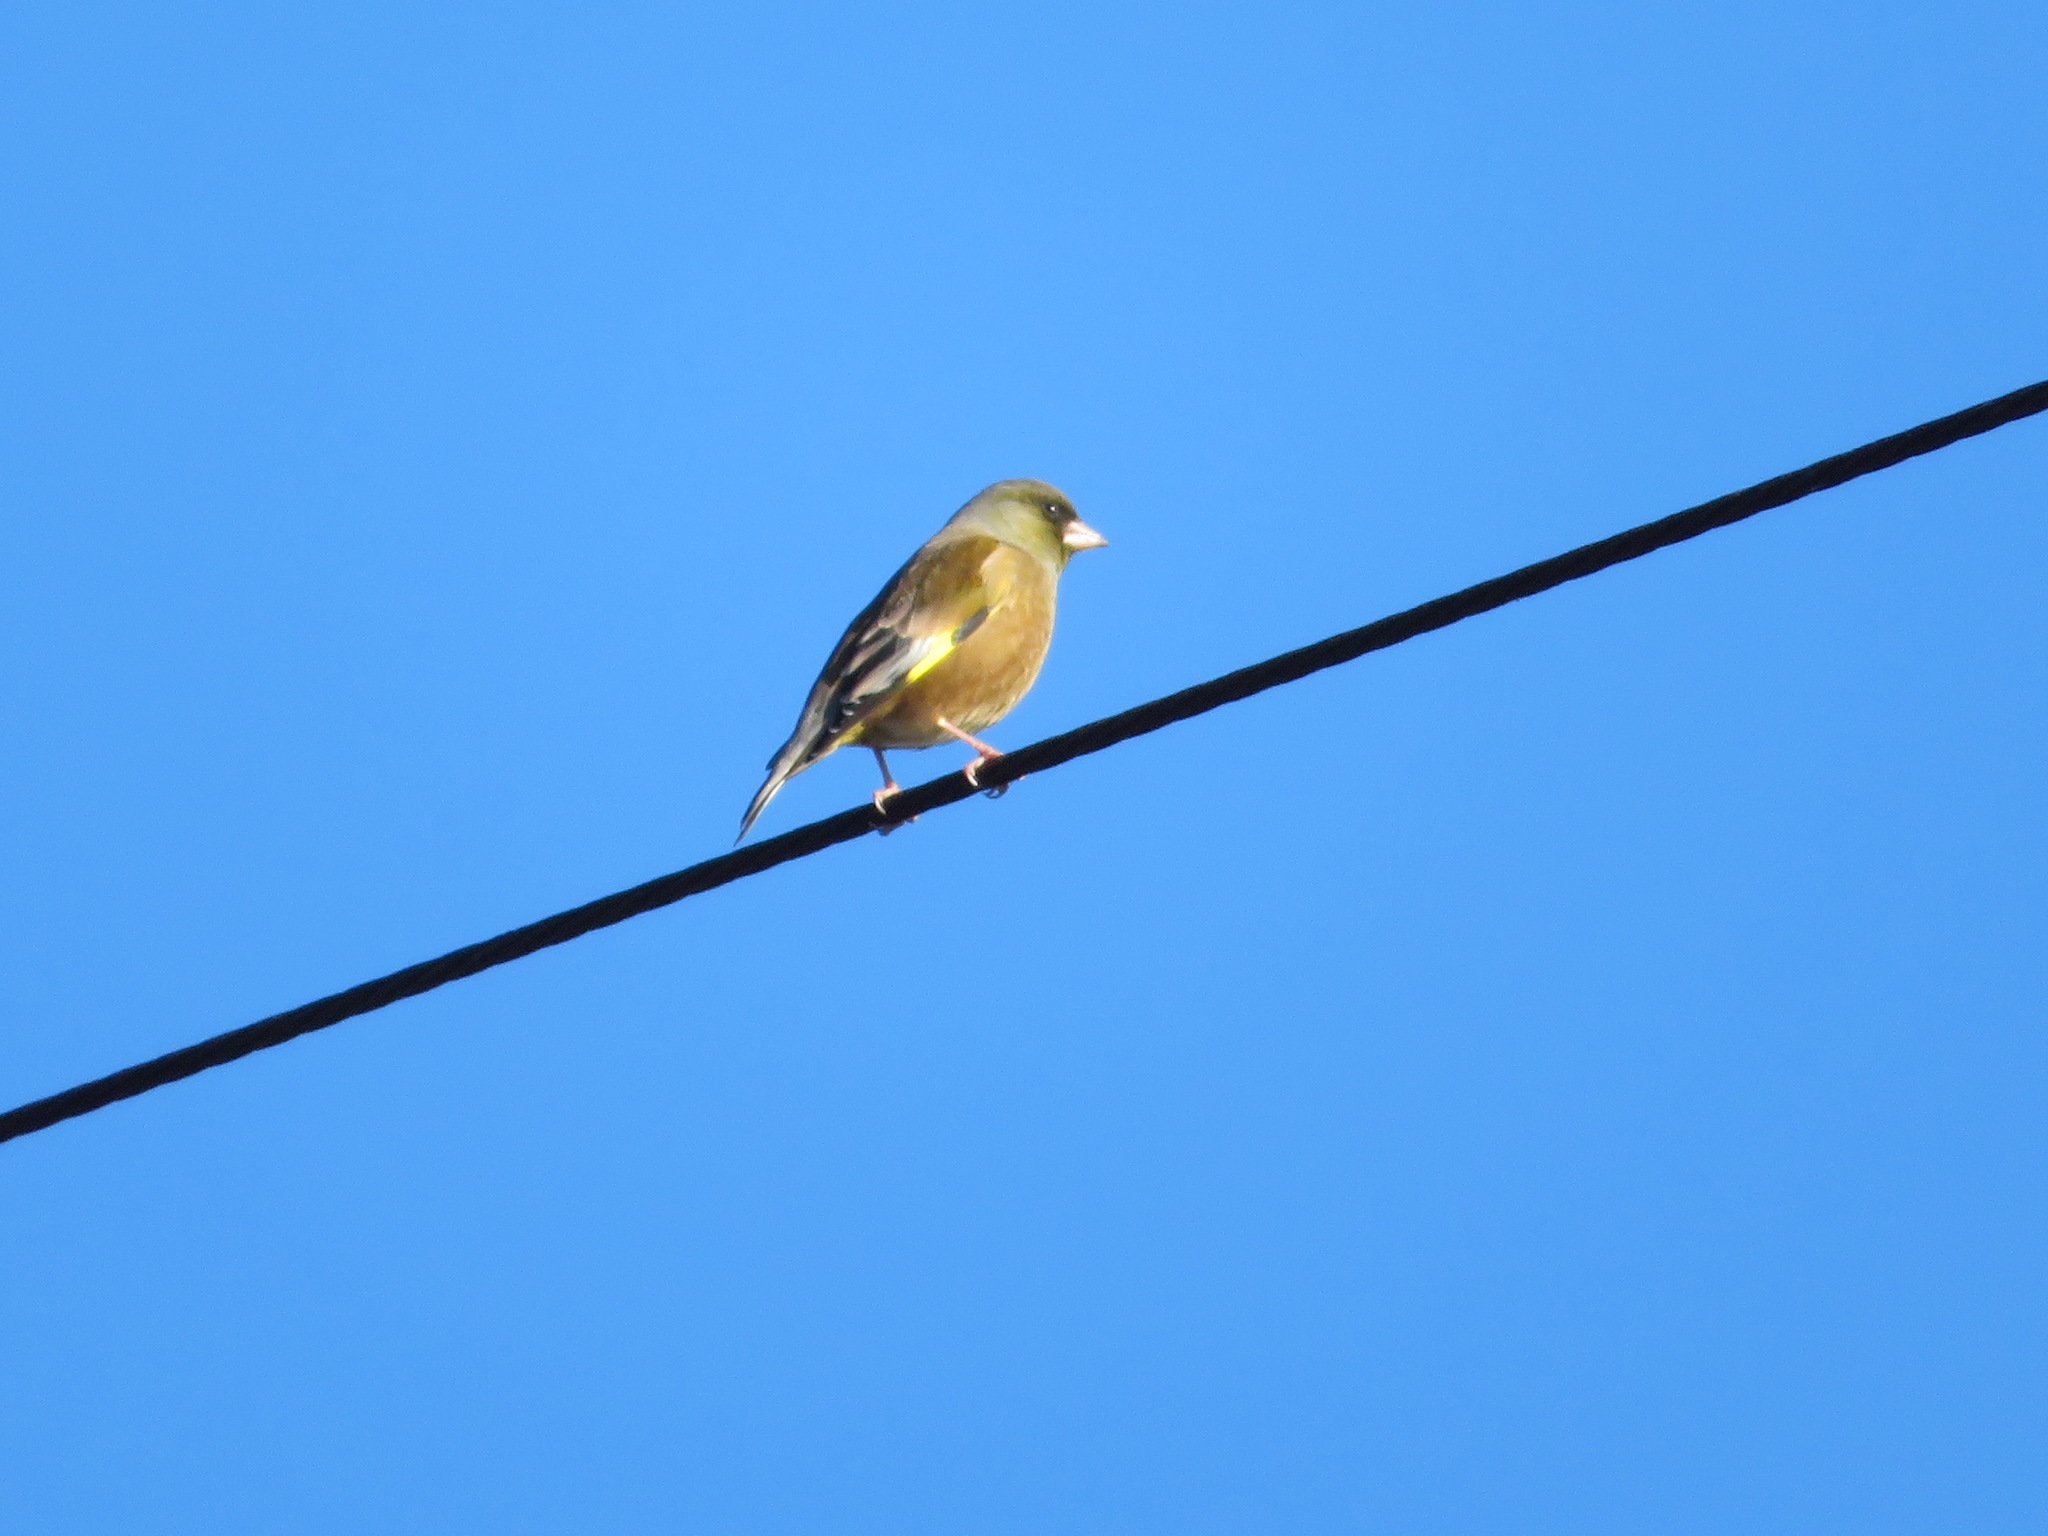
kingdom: Plantae
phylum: Tracheophyta
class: Liliopsida
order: Poales
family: Poaceae
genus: Chloris
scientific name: Chloris sinica
